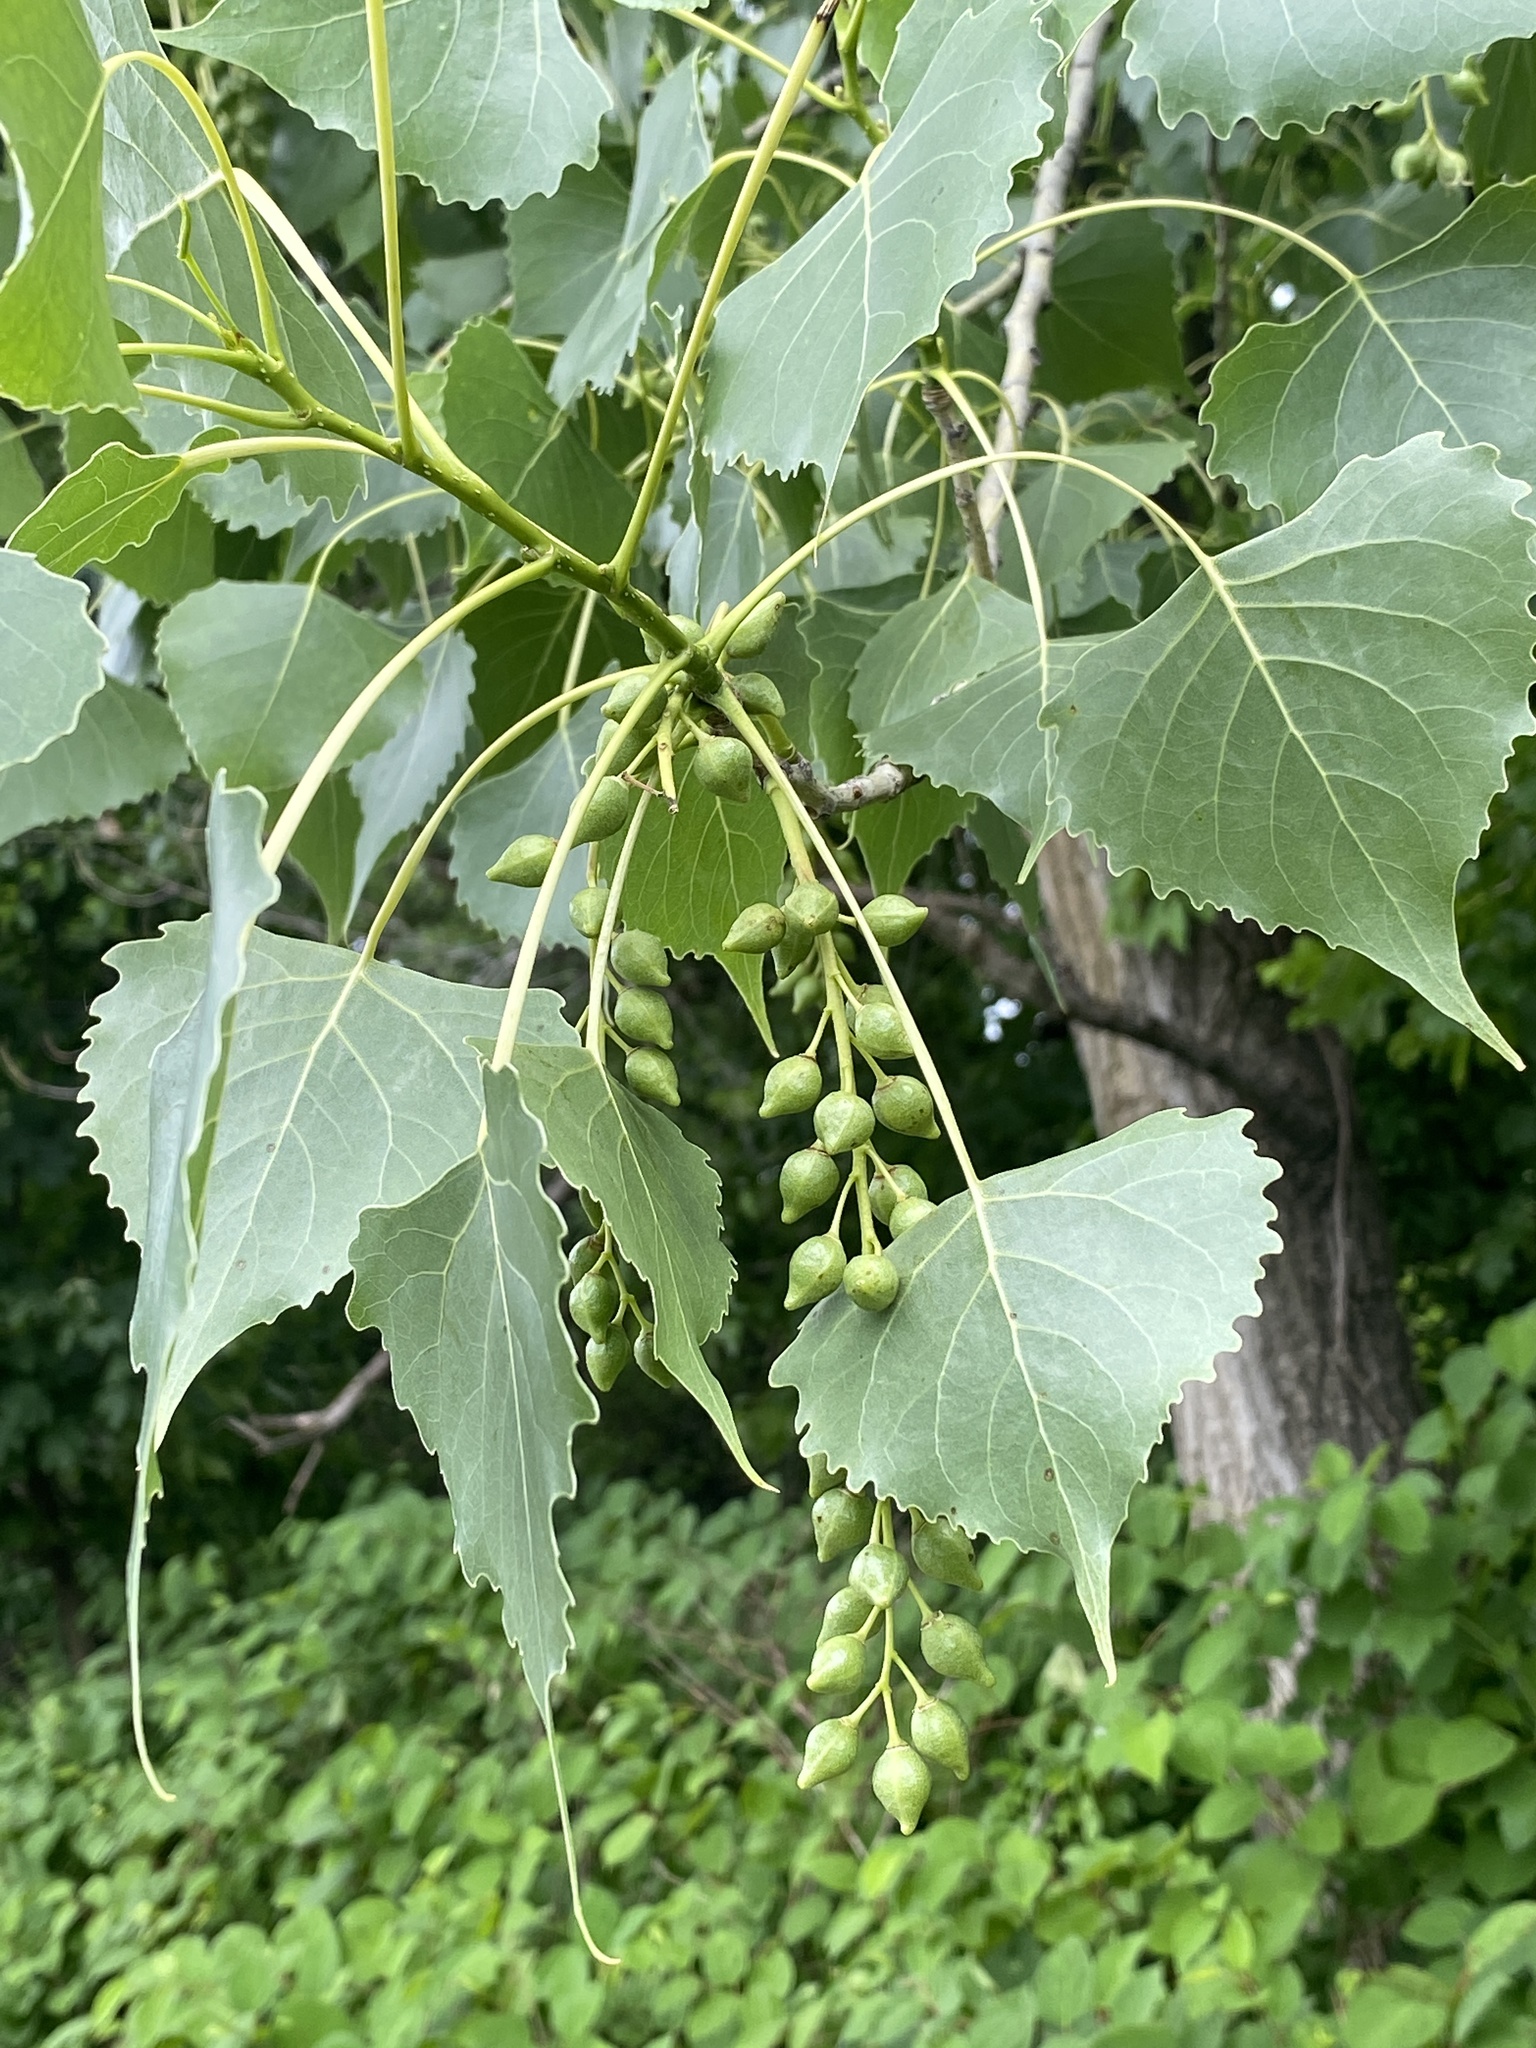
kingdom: Plantae
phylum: Tracheophyta
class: Magnoliopsida
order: Malpighiales
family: Salicaceae
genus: Populus
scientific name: Populus deltoides
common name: Eastern cottonwood
